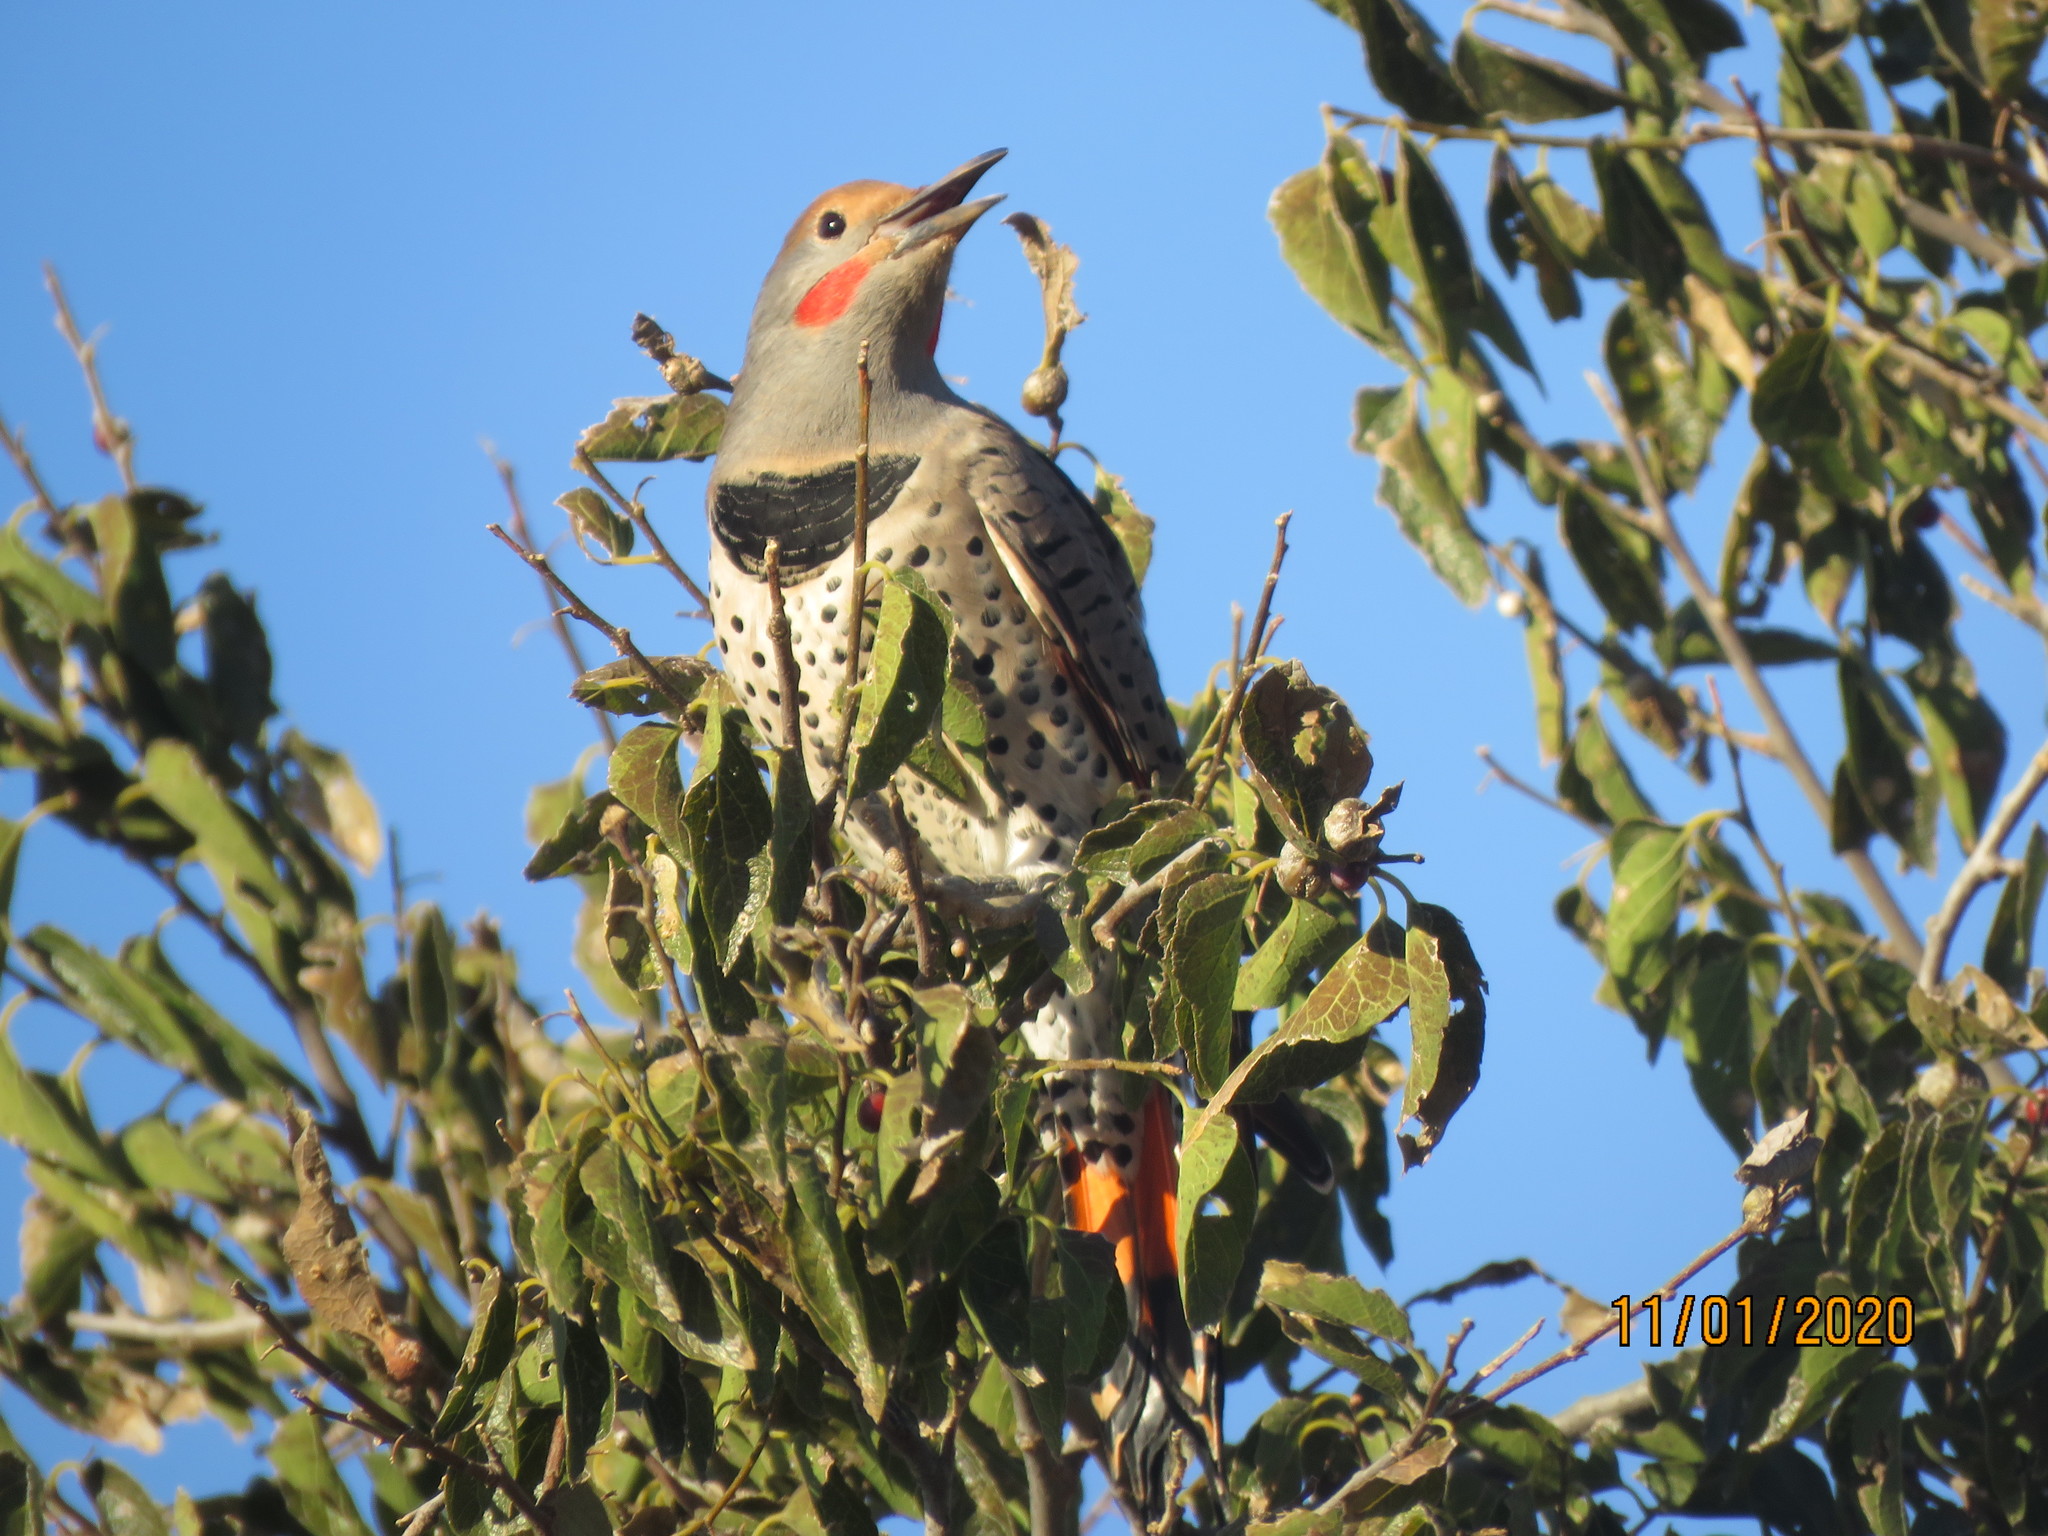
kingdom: Animalia
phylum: Chordata
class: Aves
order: Piciformes
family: Picidae
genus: Colaptes
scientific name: Colaptes auratus
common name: Northern flicker
